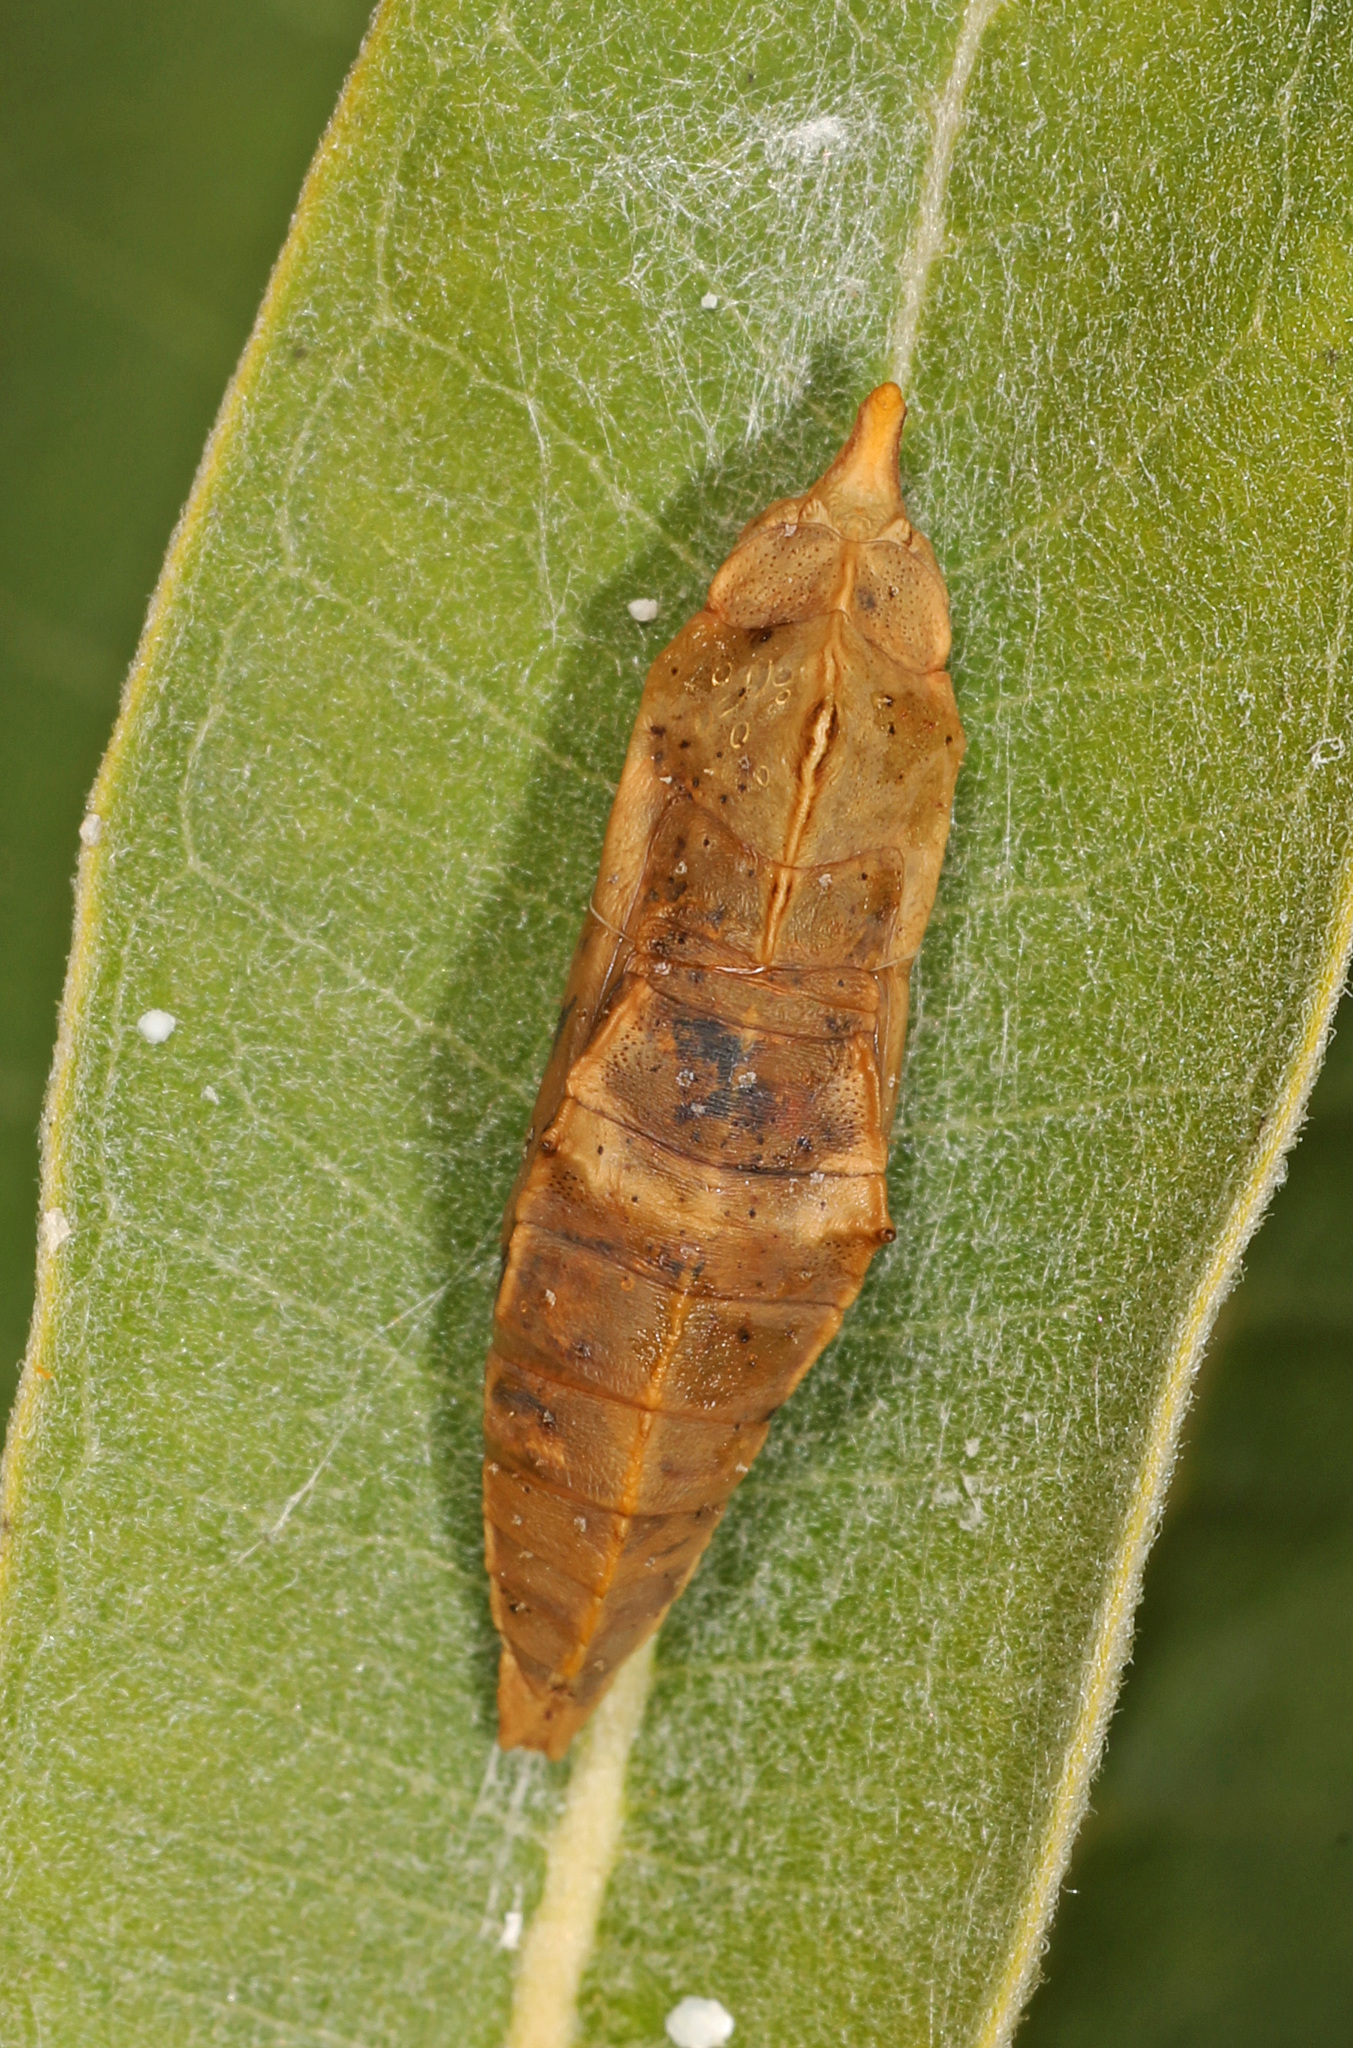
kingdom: Animalia
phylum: Arthropoda
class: Insecta
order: Lepidoptera
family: Pieridae
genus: Pieris
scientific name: Pieris rapae
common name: Small white
